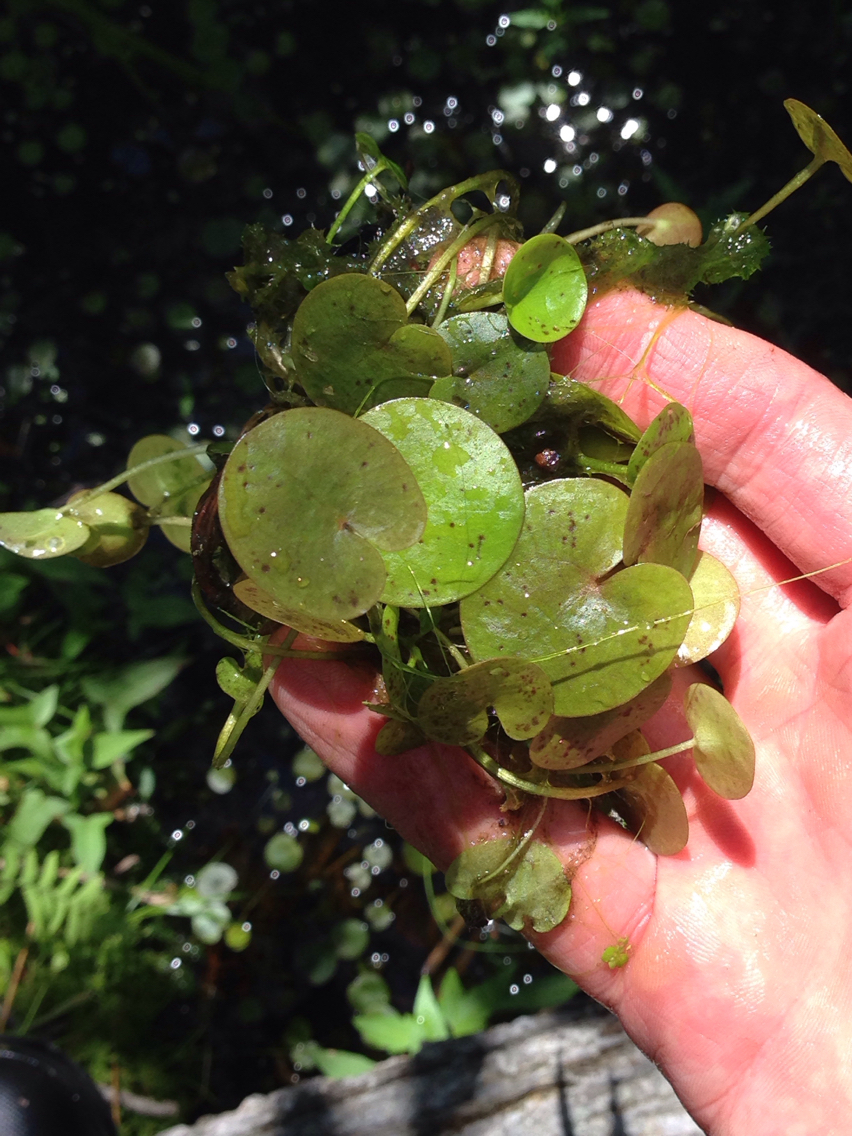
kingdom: Plantae
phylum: Tracheophyta
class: Liliopsida
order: Alismatales
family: Hydrocharitaceae
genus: Hydrocharis
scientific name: Hydrocharis morsus-ranae
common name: Frogbit
